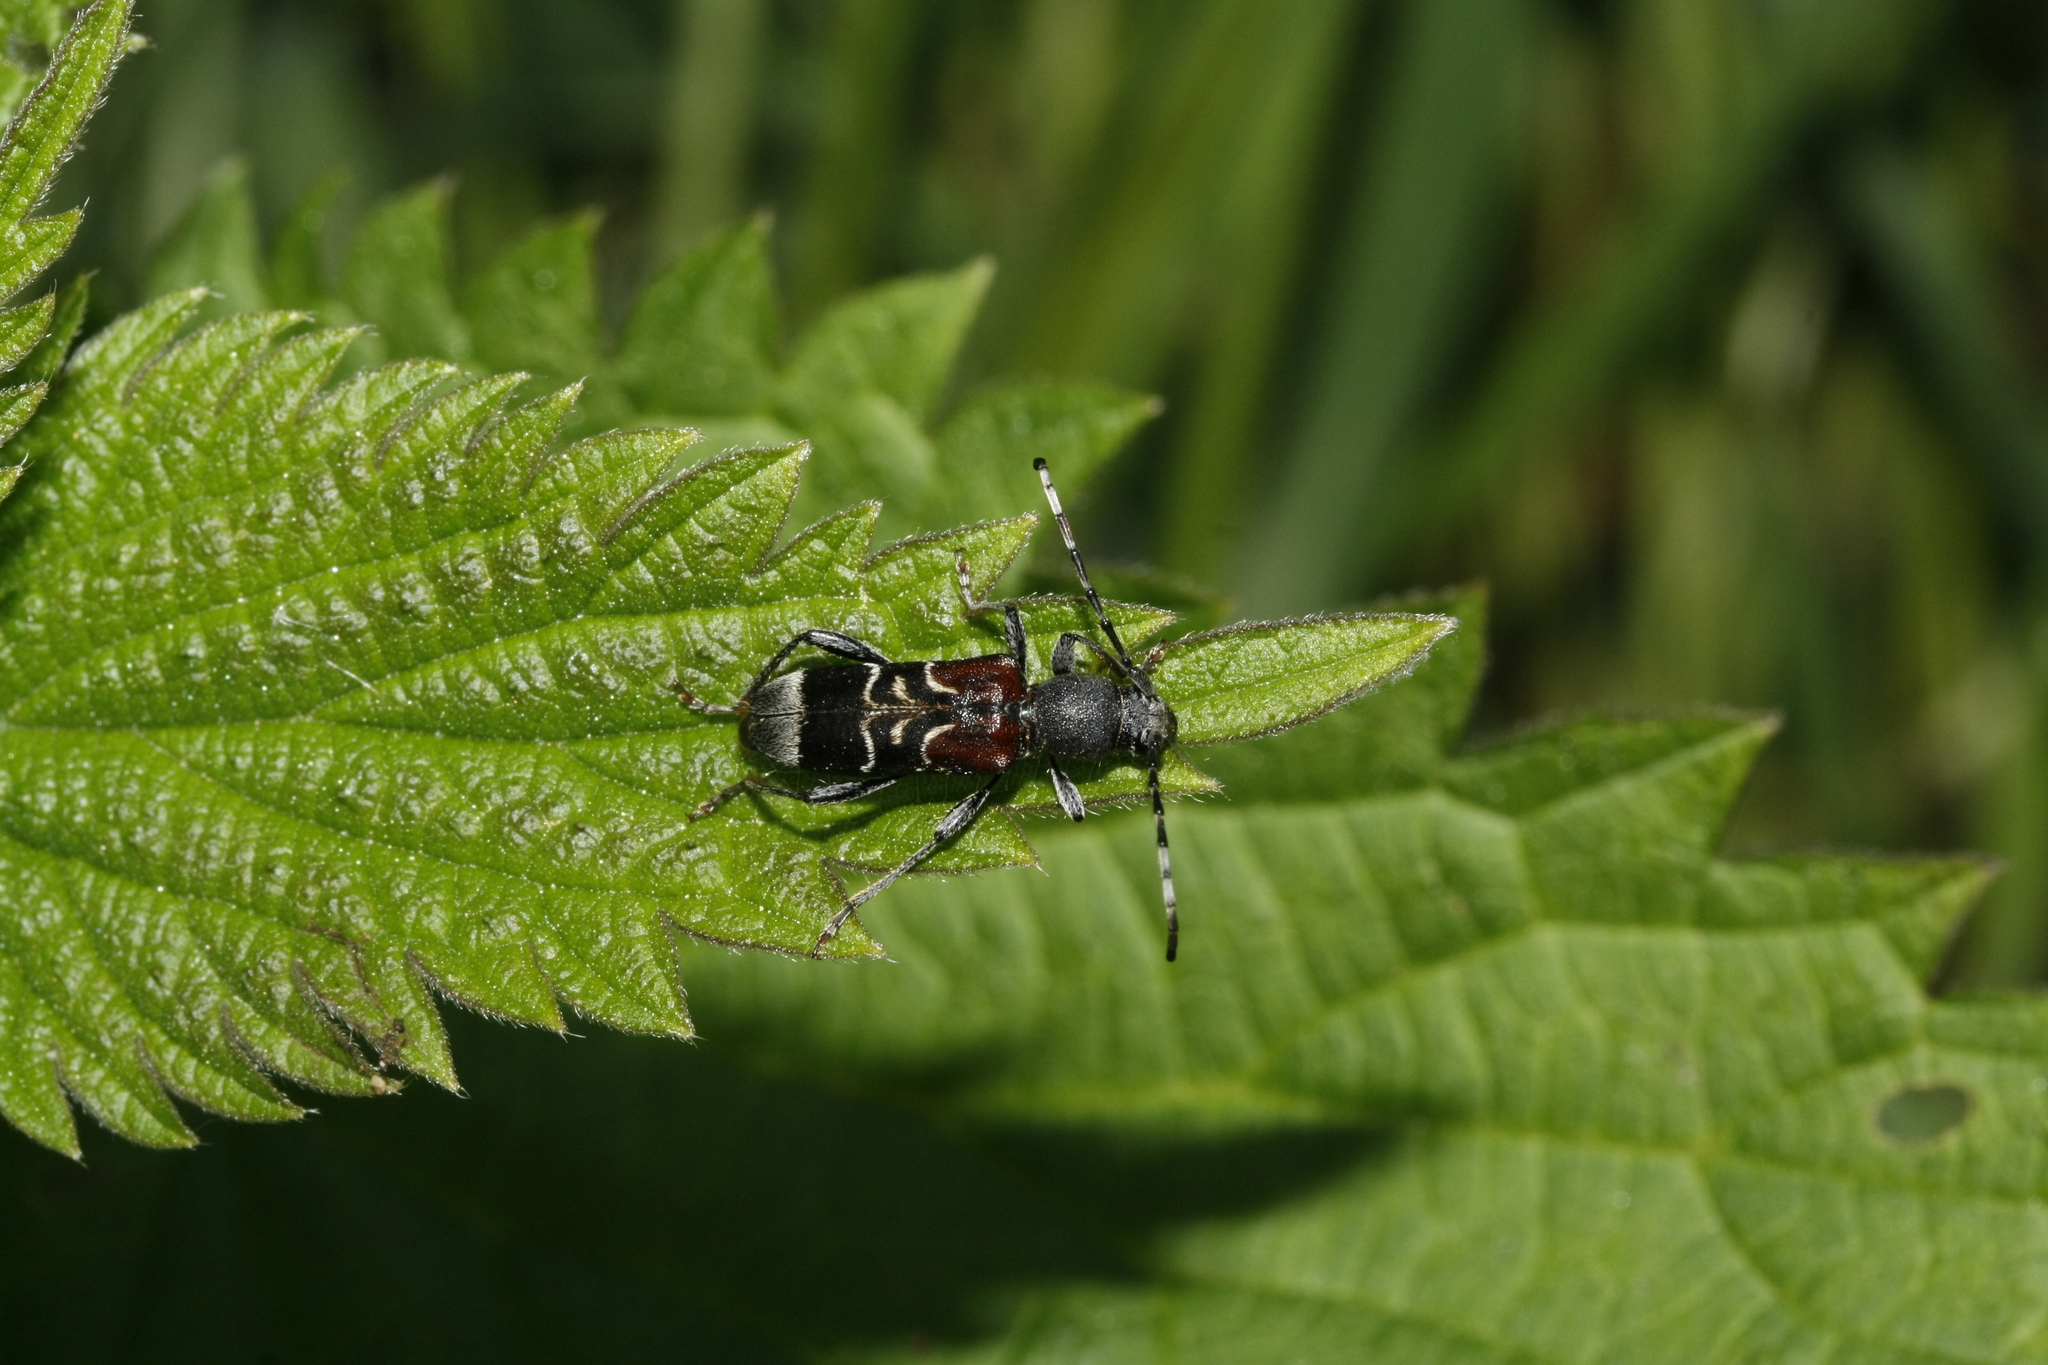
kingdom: Animalia
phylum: Arthropoda
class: Insecta
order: Coleoptera
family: Cerambycidae
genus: Anaglyptus
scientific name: Anaglyptus mysticus
